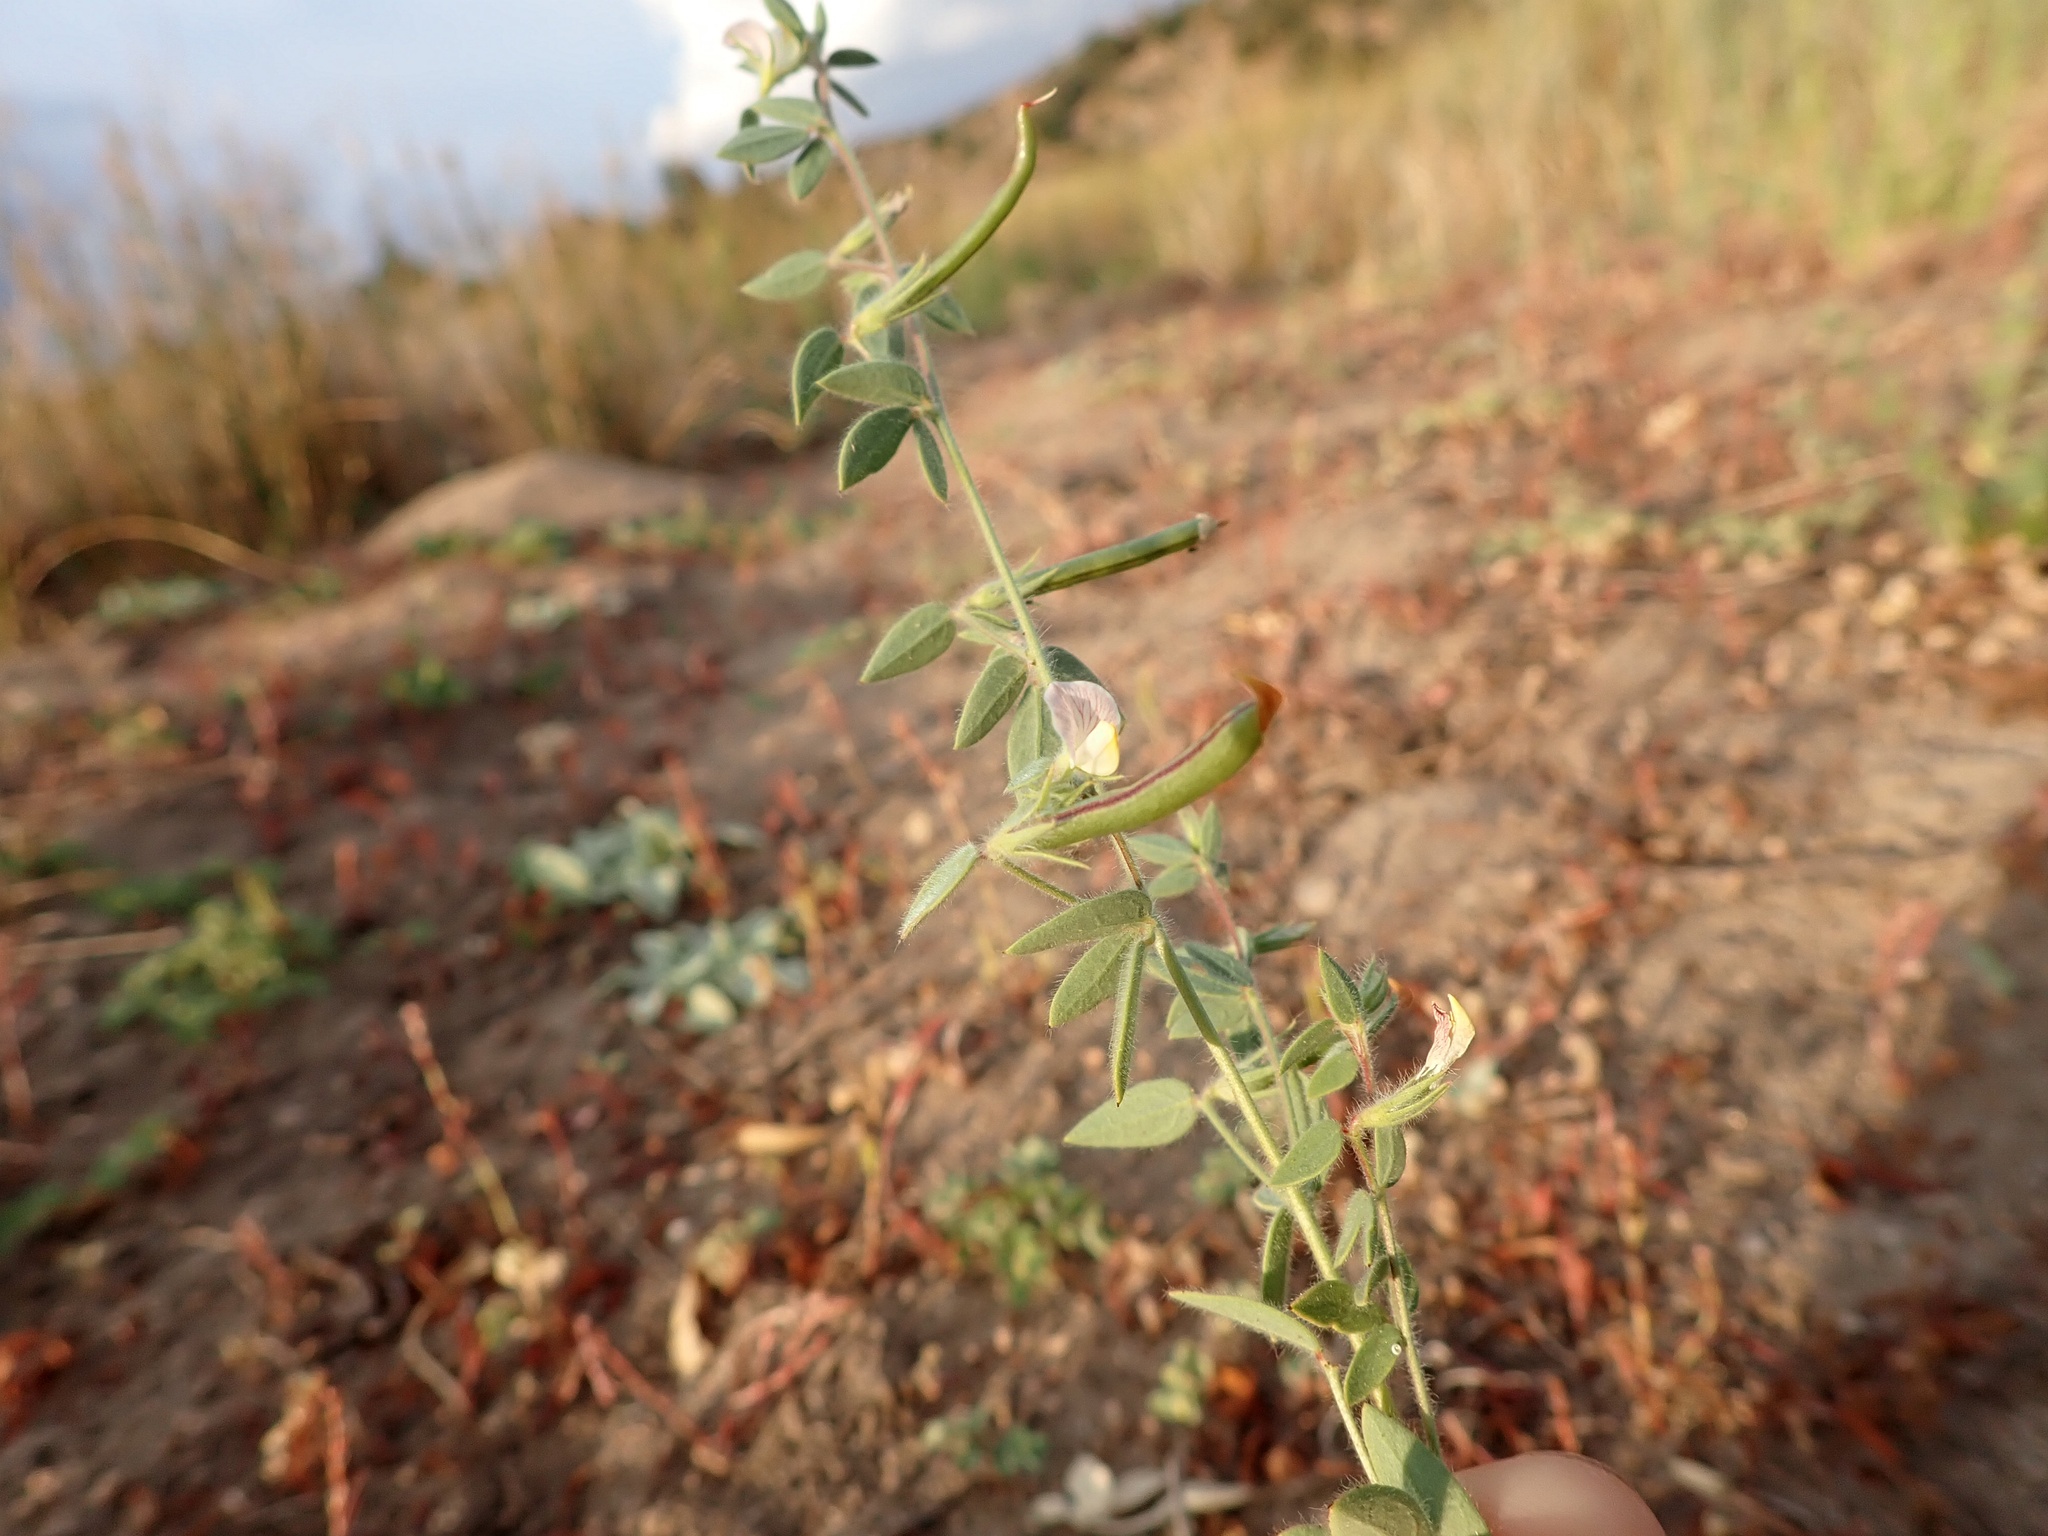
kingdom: Plantae
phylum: Tracheophyta
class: Magnoliopsida
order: Fabales
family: Fabaceae
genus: Acmispon
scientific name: Acmispon americanus
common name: American bird's-foot trefoil
